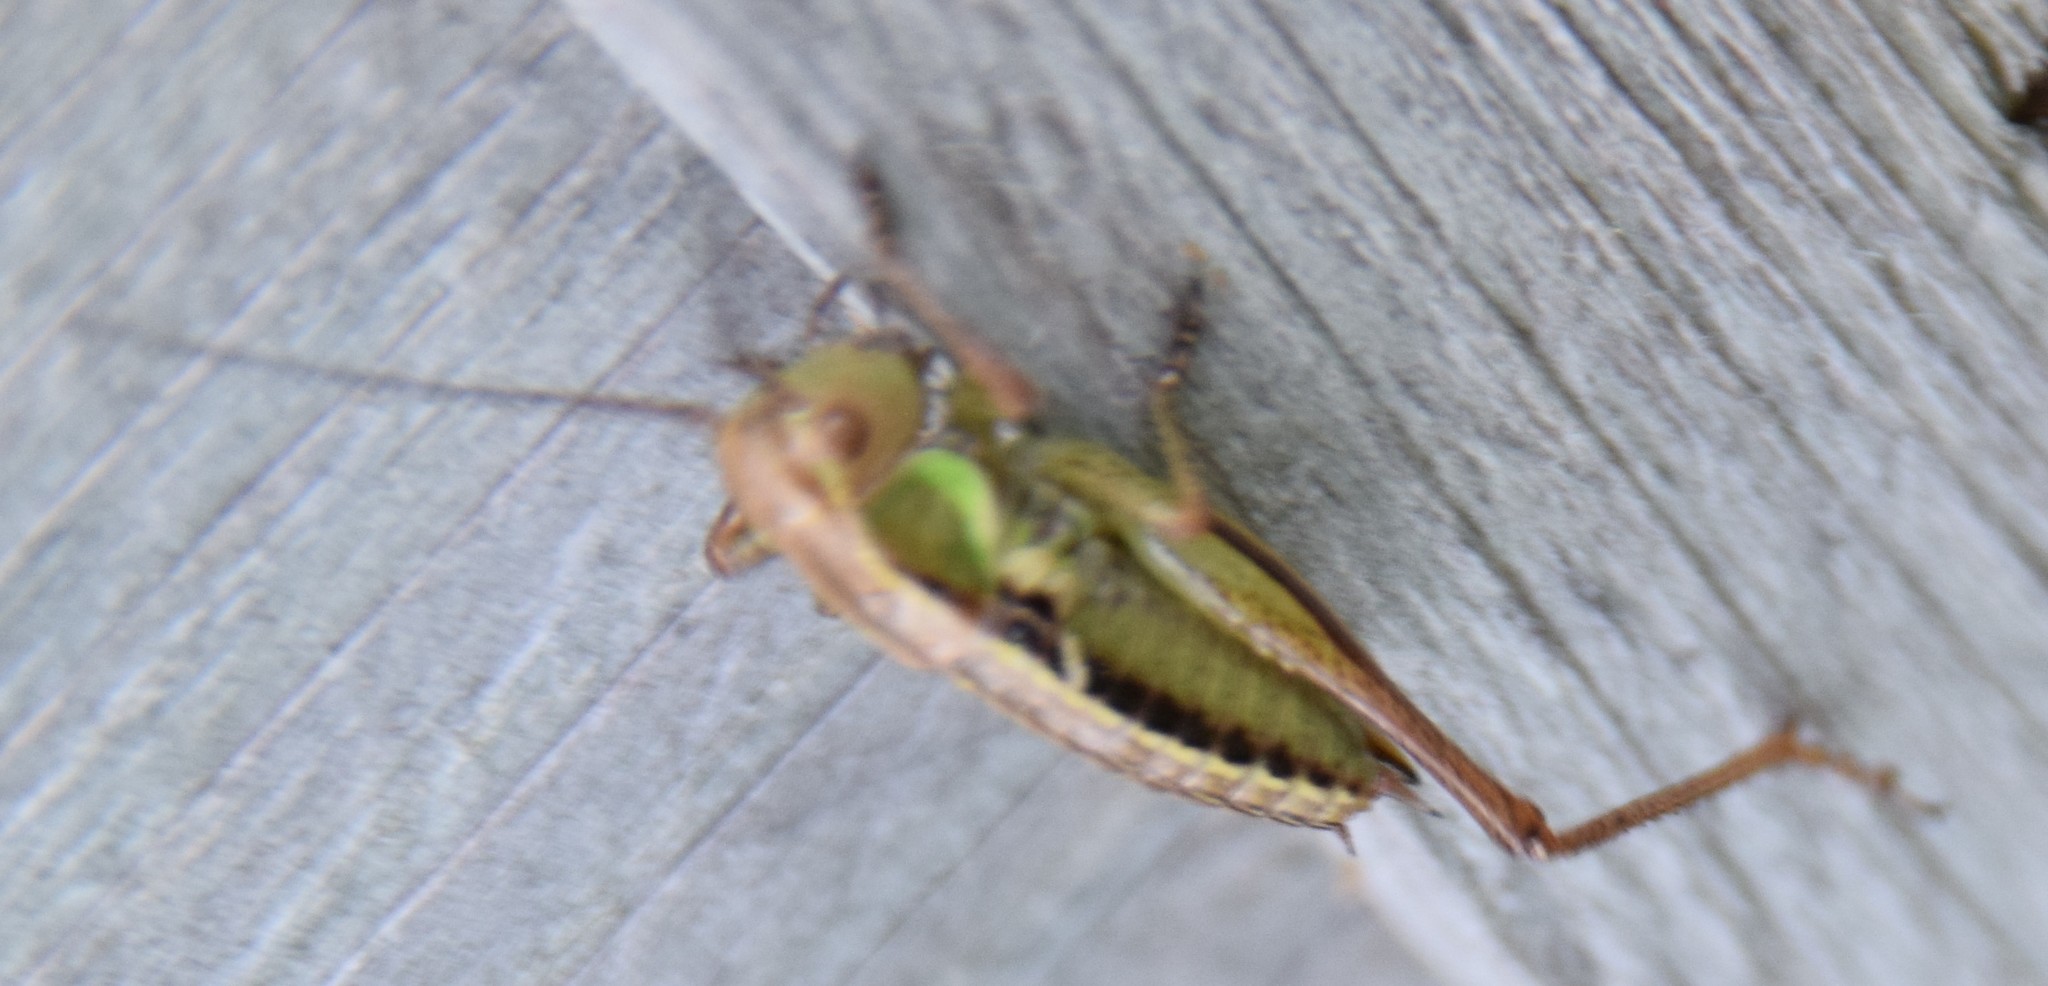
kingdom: Animalia
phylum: Arthropoda
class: Insecta
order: Orthoptera
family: Tettigoniidae
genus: Roeseliana
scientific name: Roeseliana roeselii
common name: Roesel's bush cricket
